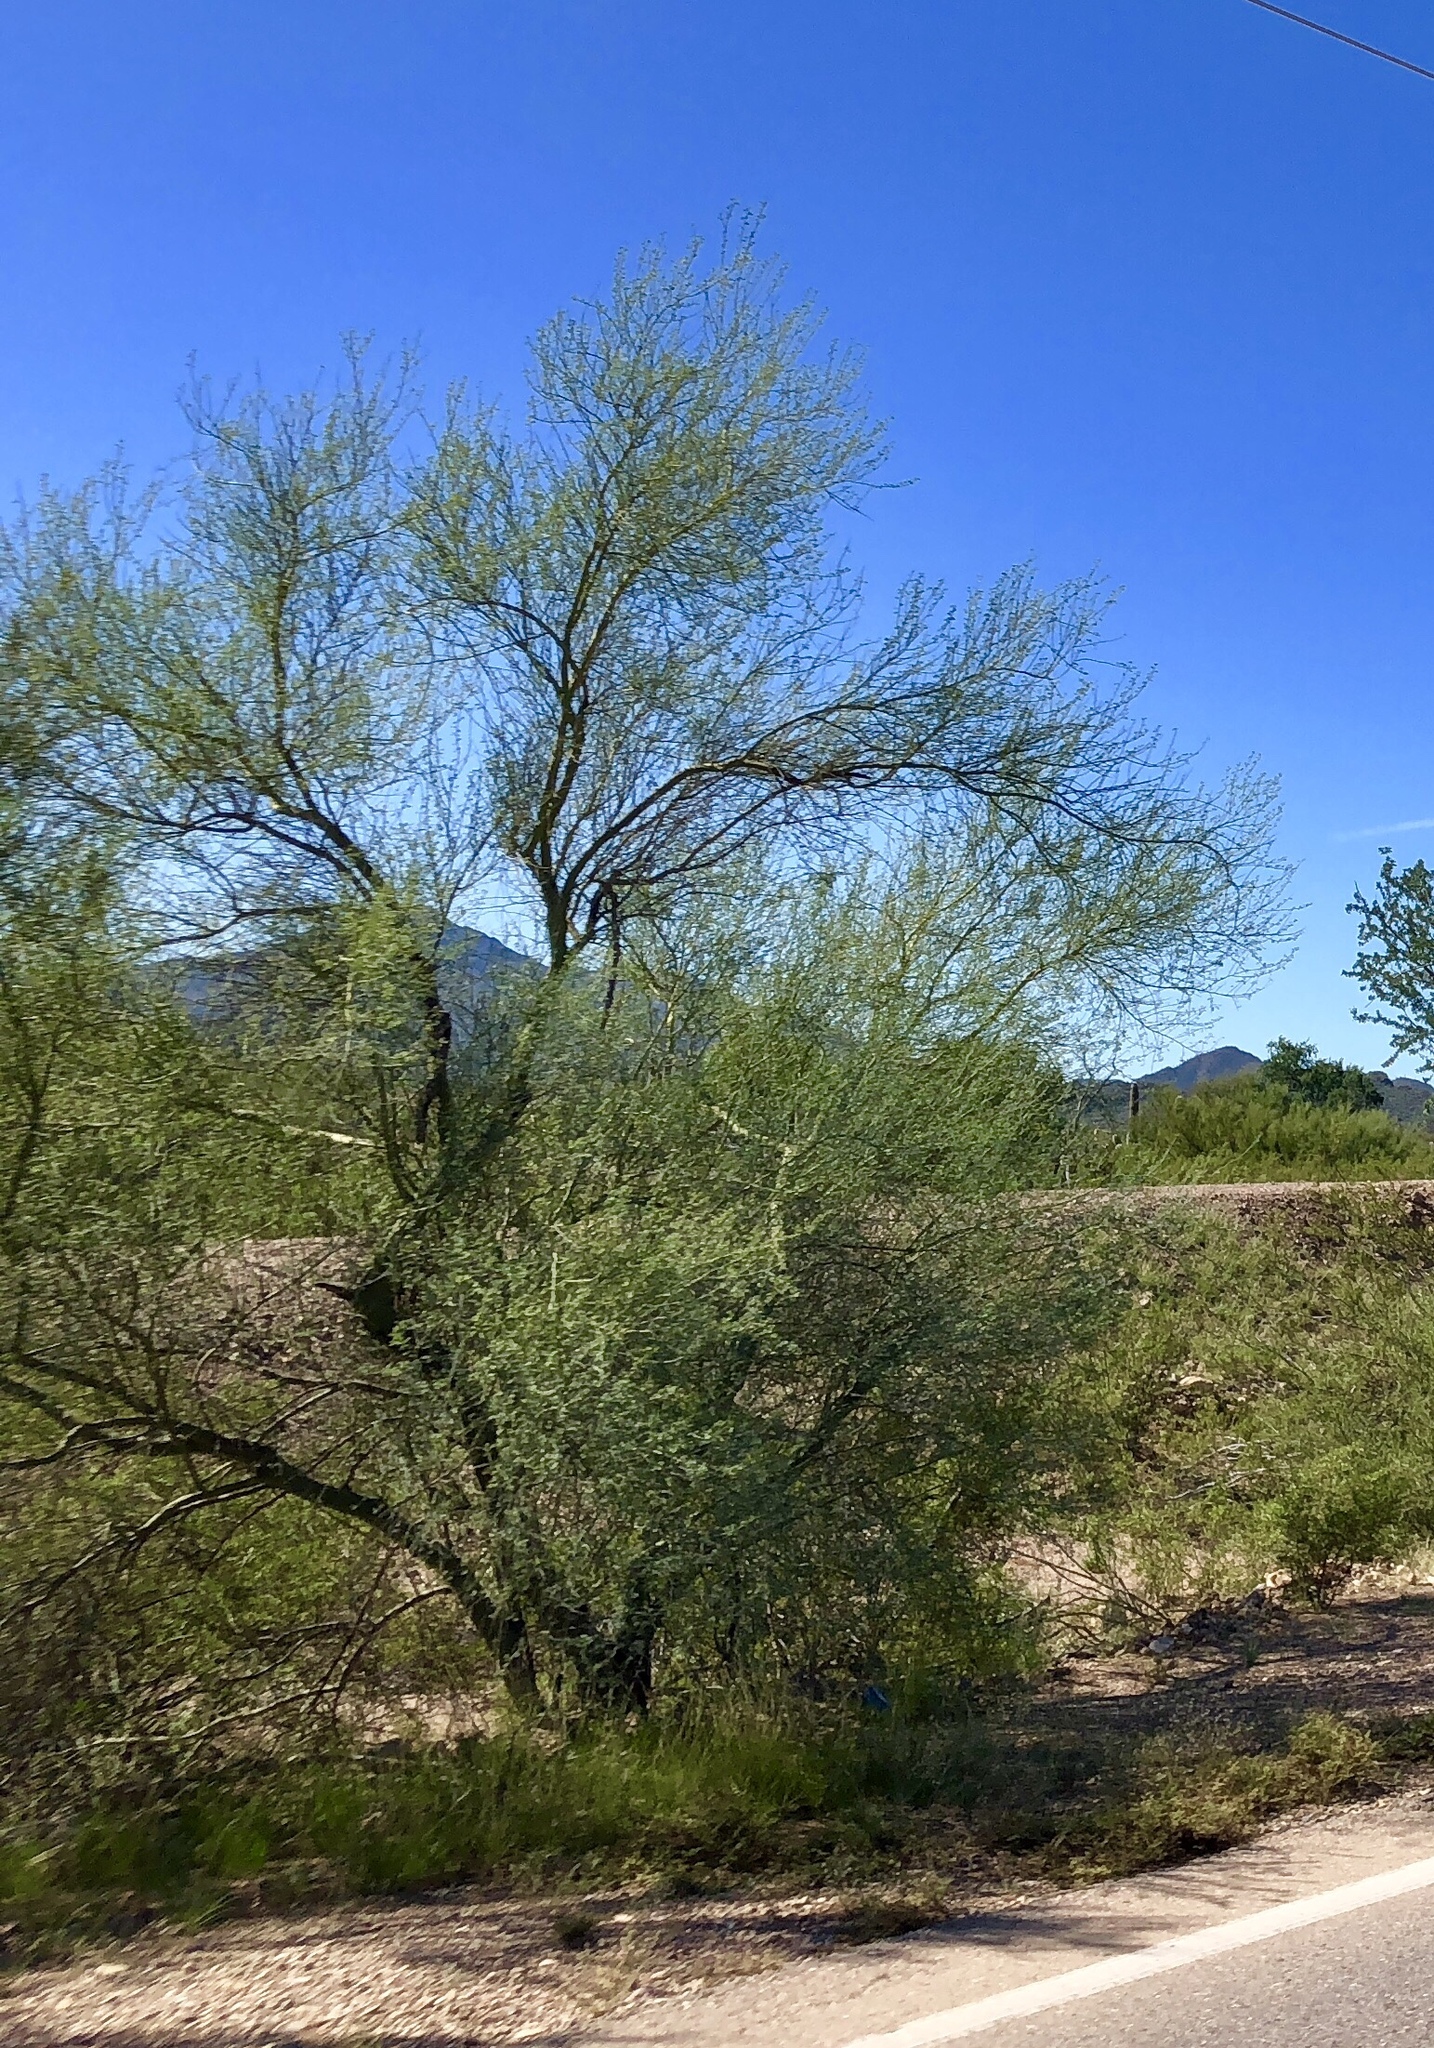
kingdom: Plantae
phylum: Tracheophyta
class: Magnoliopsida
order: Fabales
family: Fabaceae
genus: Parkinsonia
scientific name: Parkinsonia microphylla
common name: Yellow paloverde
